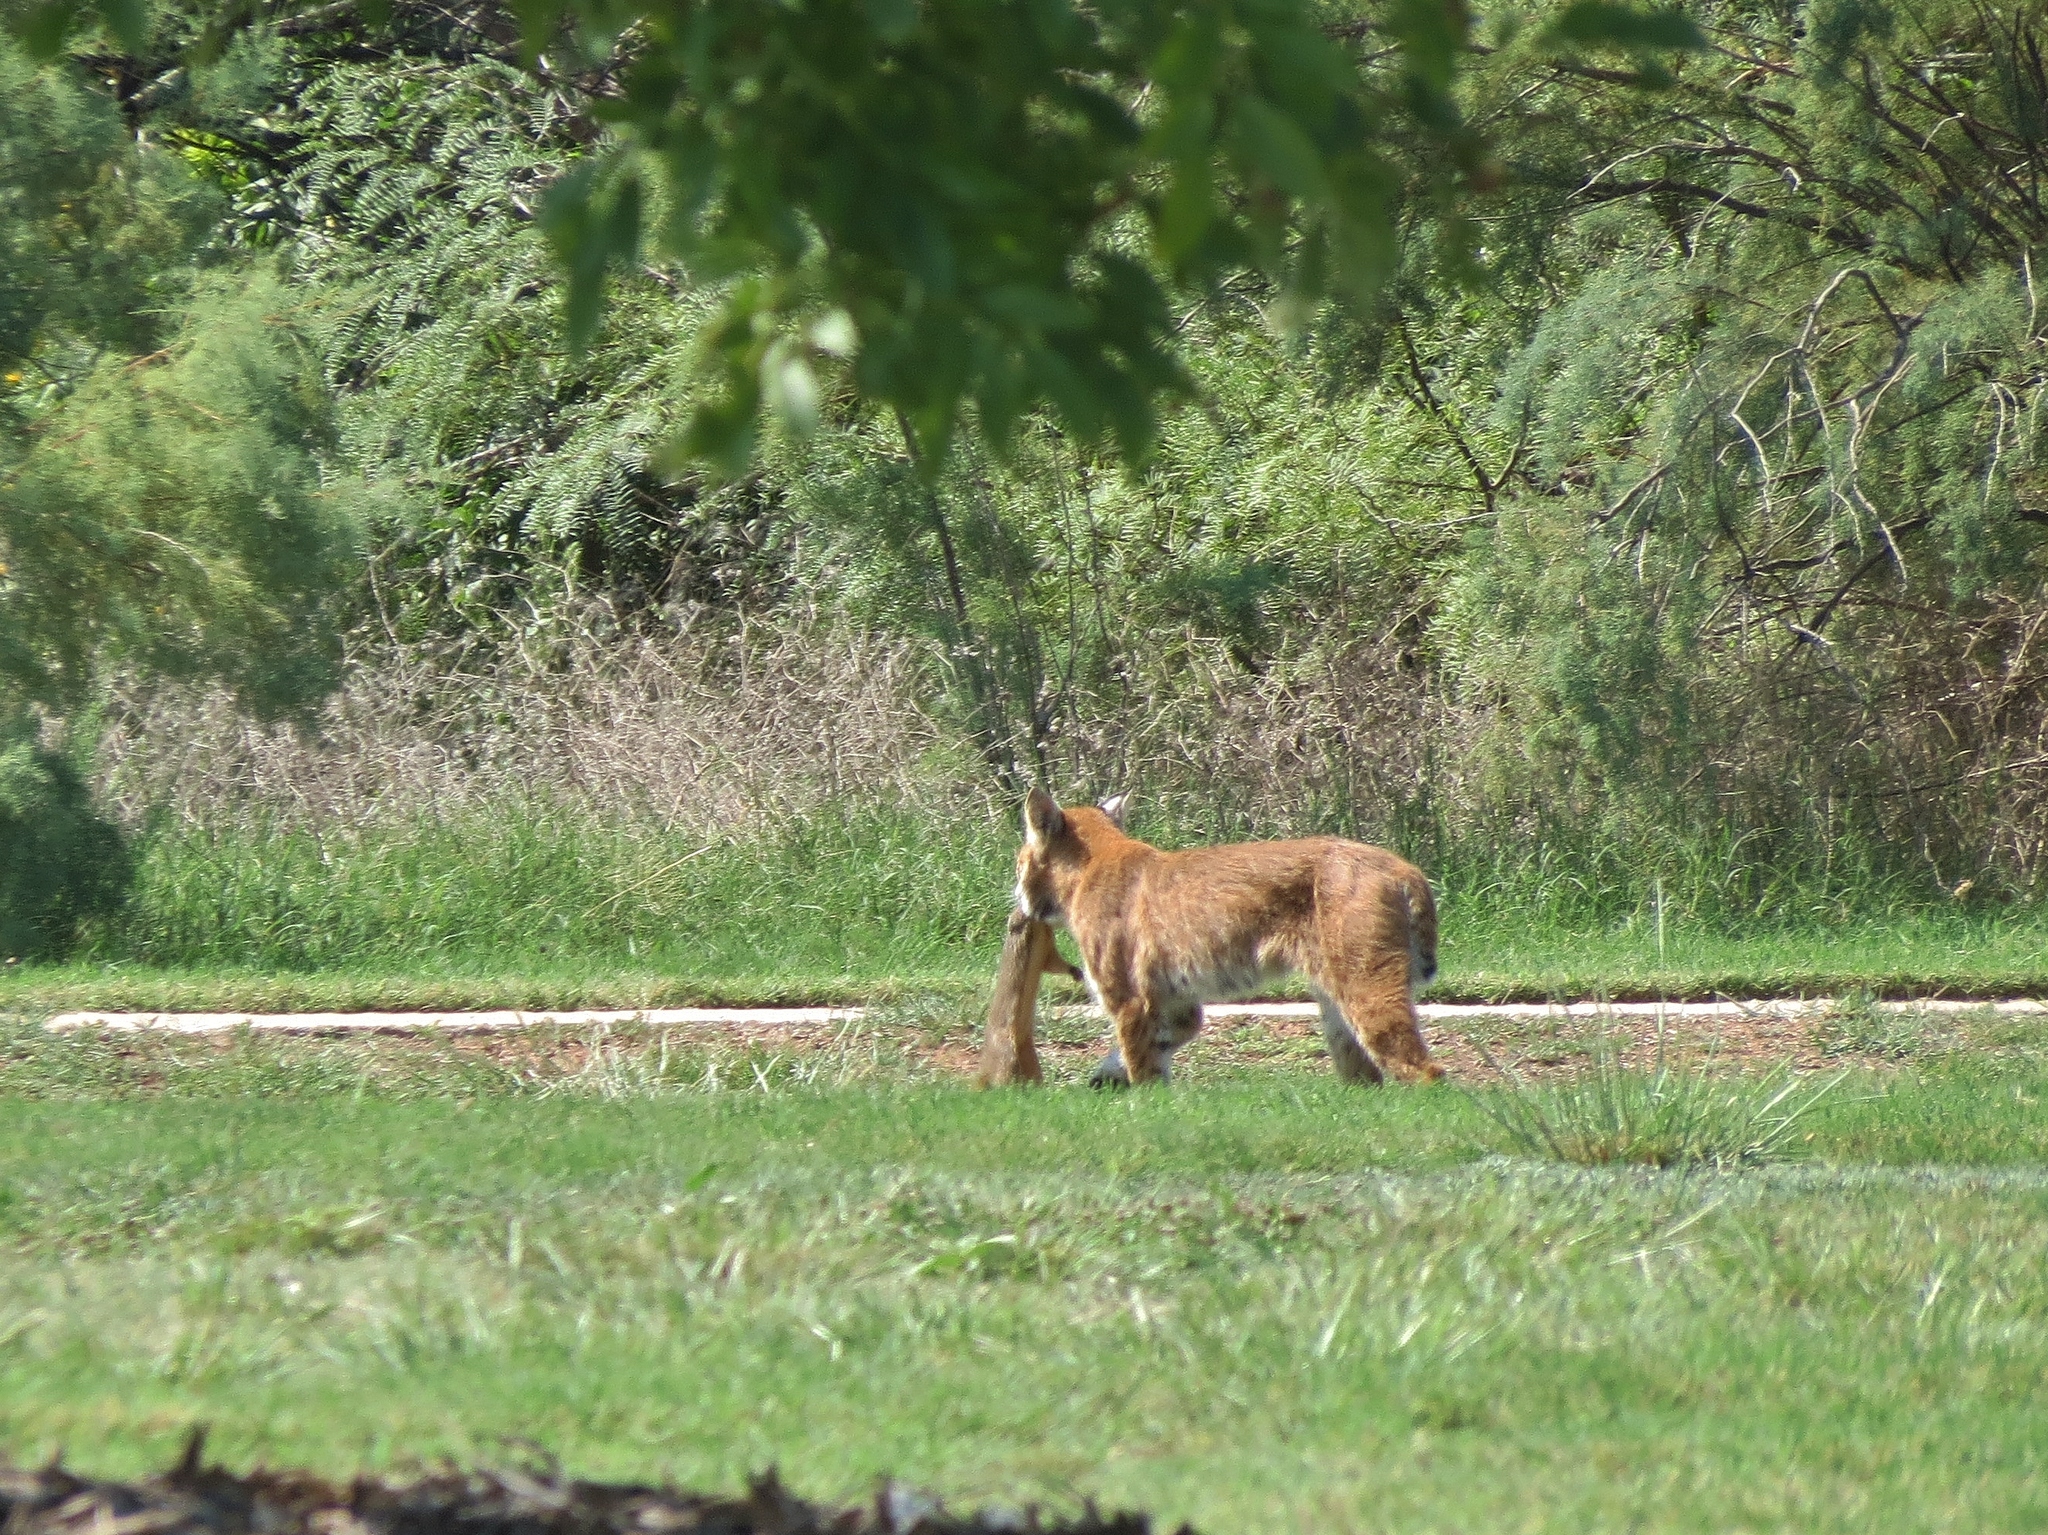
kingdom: Animalia
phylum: Chordata
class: Mammalia
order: Carnivora
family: Felidae
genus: Lynx
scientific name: Lynx rufus
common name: Bobcat
